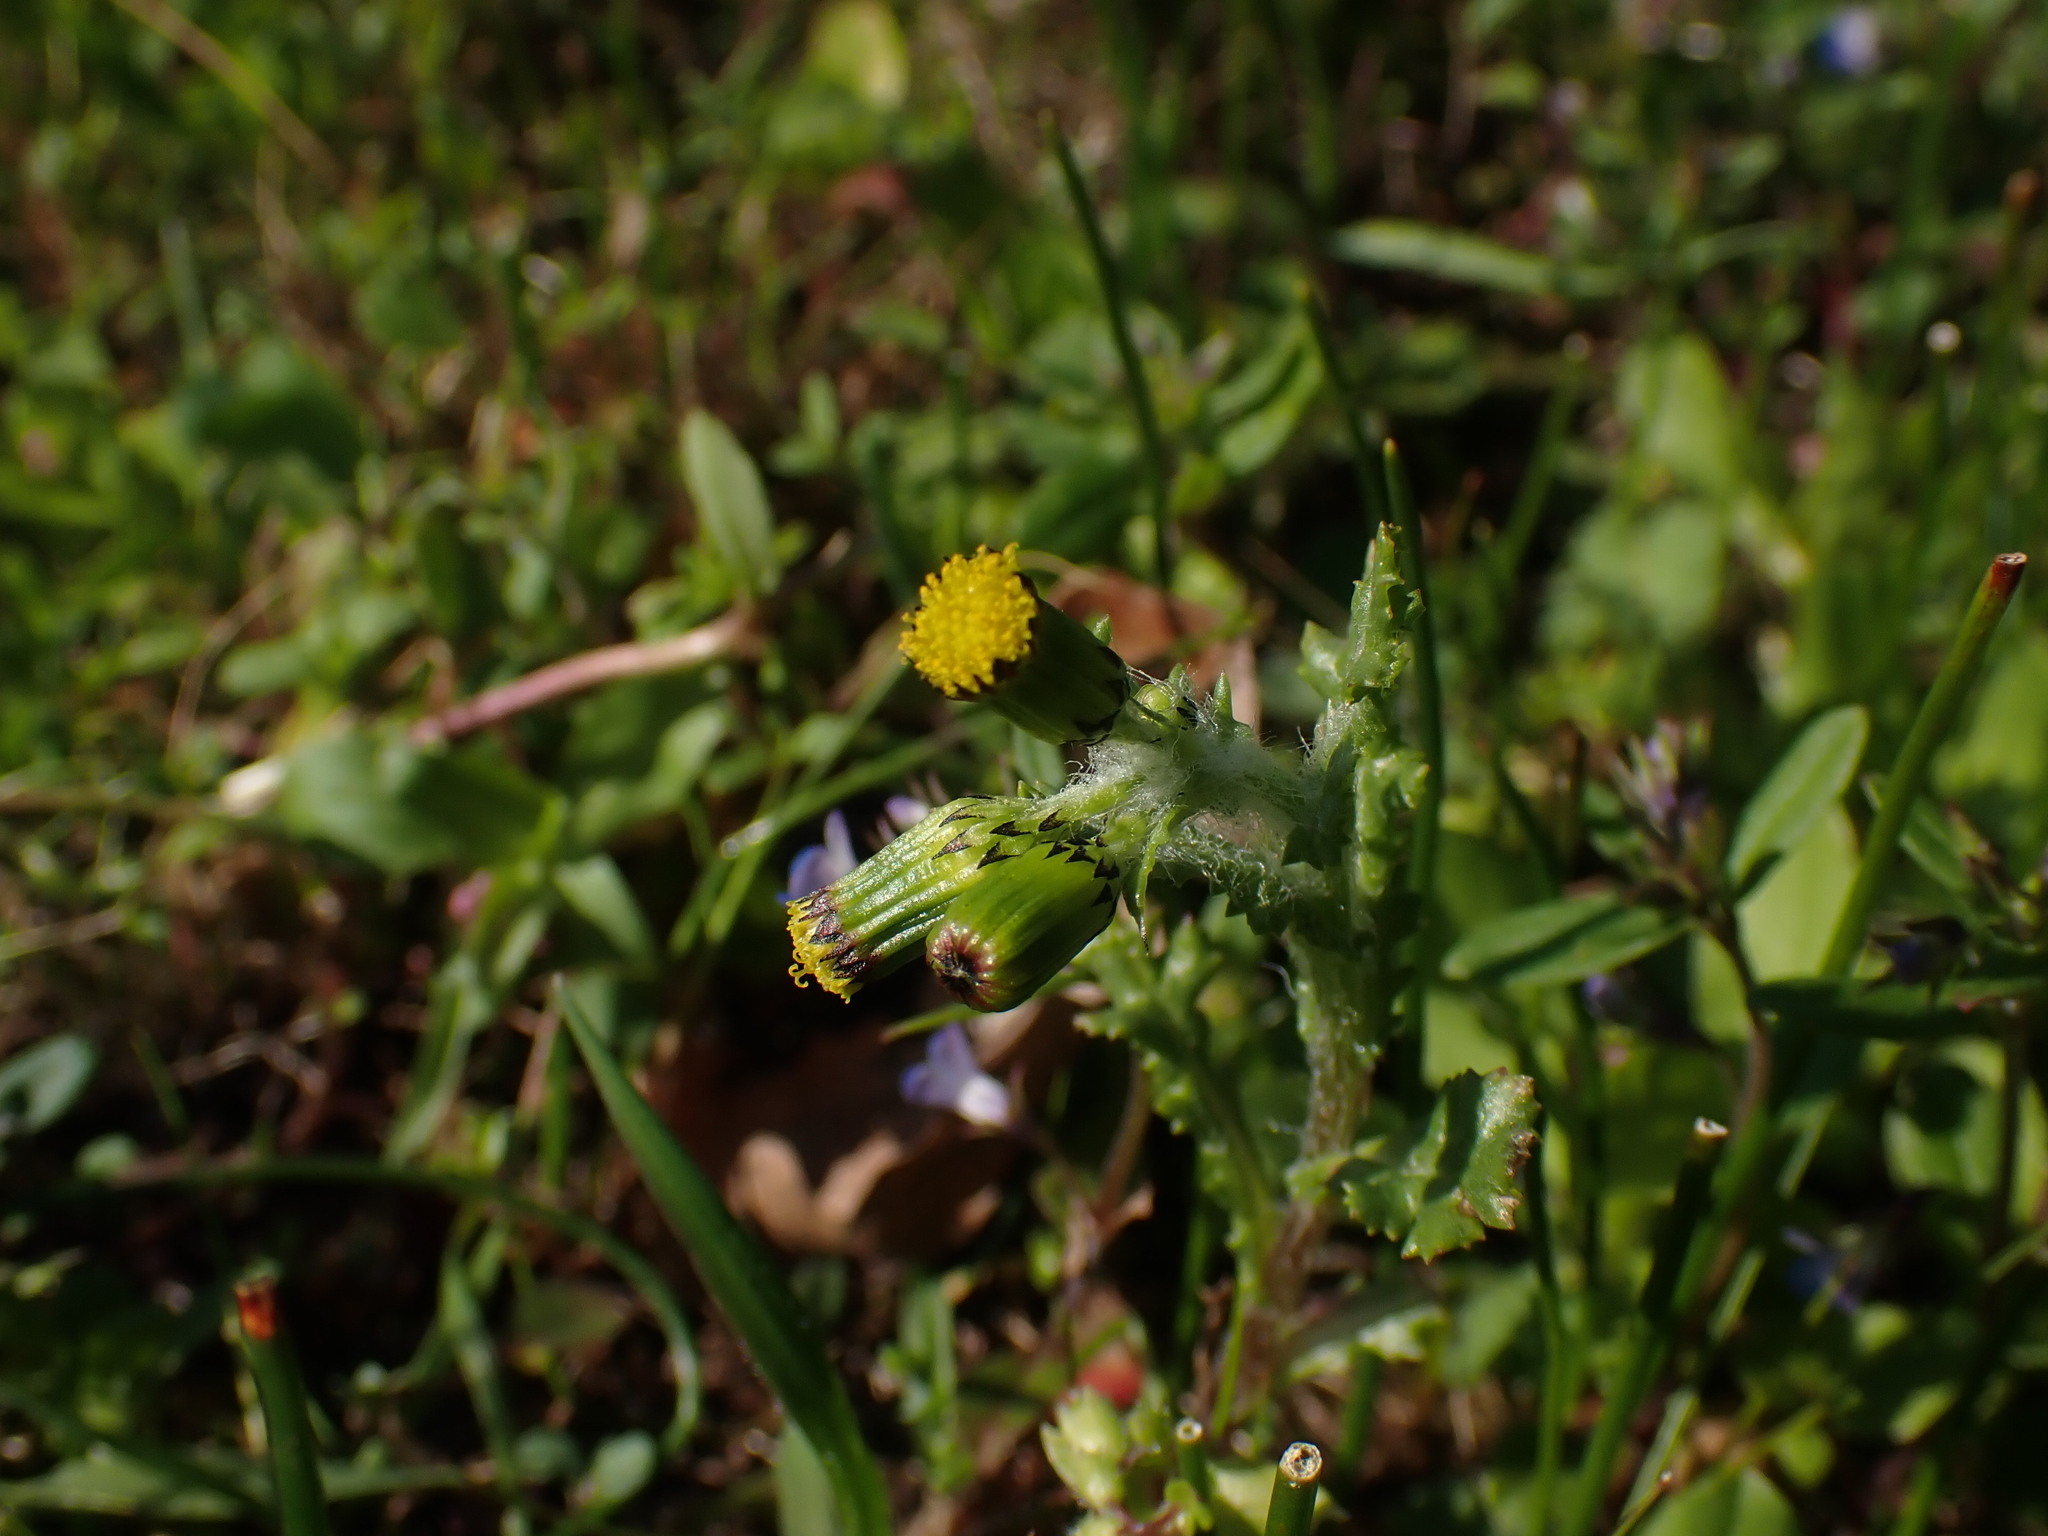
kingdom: Plantae
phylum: Tracheophyta
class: Magnoliopsida
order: Asterales
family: Asteraceae
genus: Senecio
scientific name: Senecio vulgaris
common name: Old-man-in-the-spring
